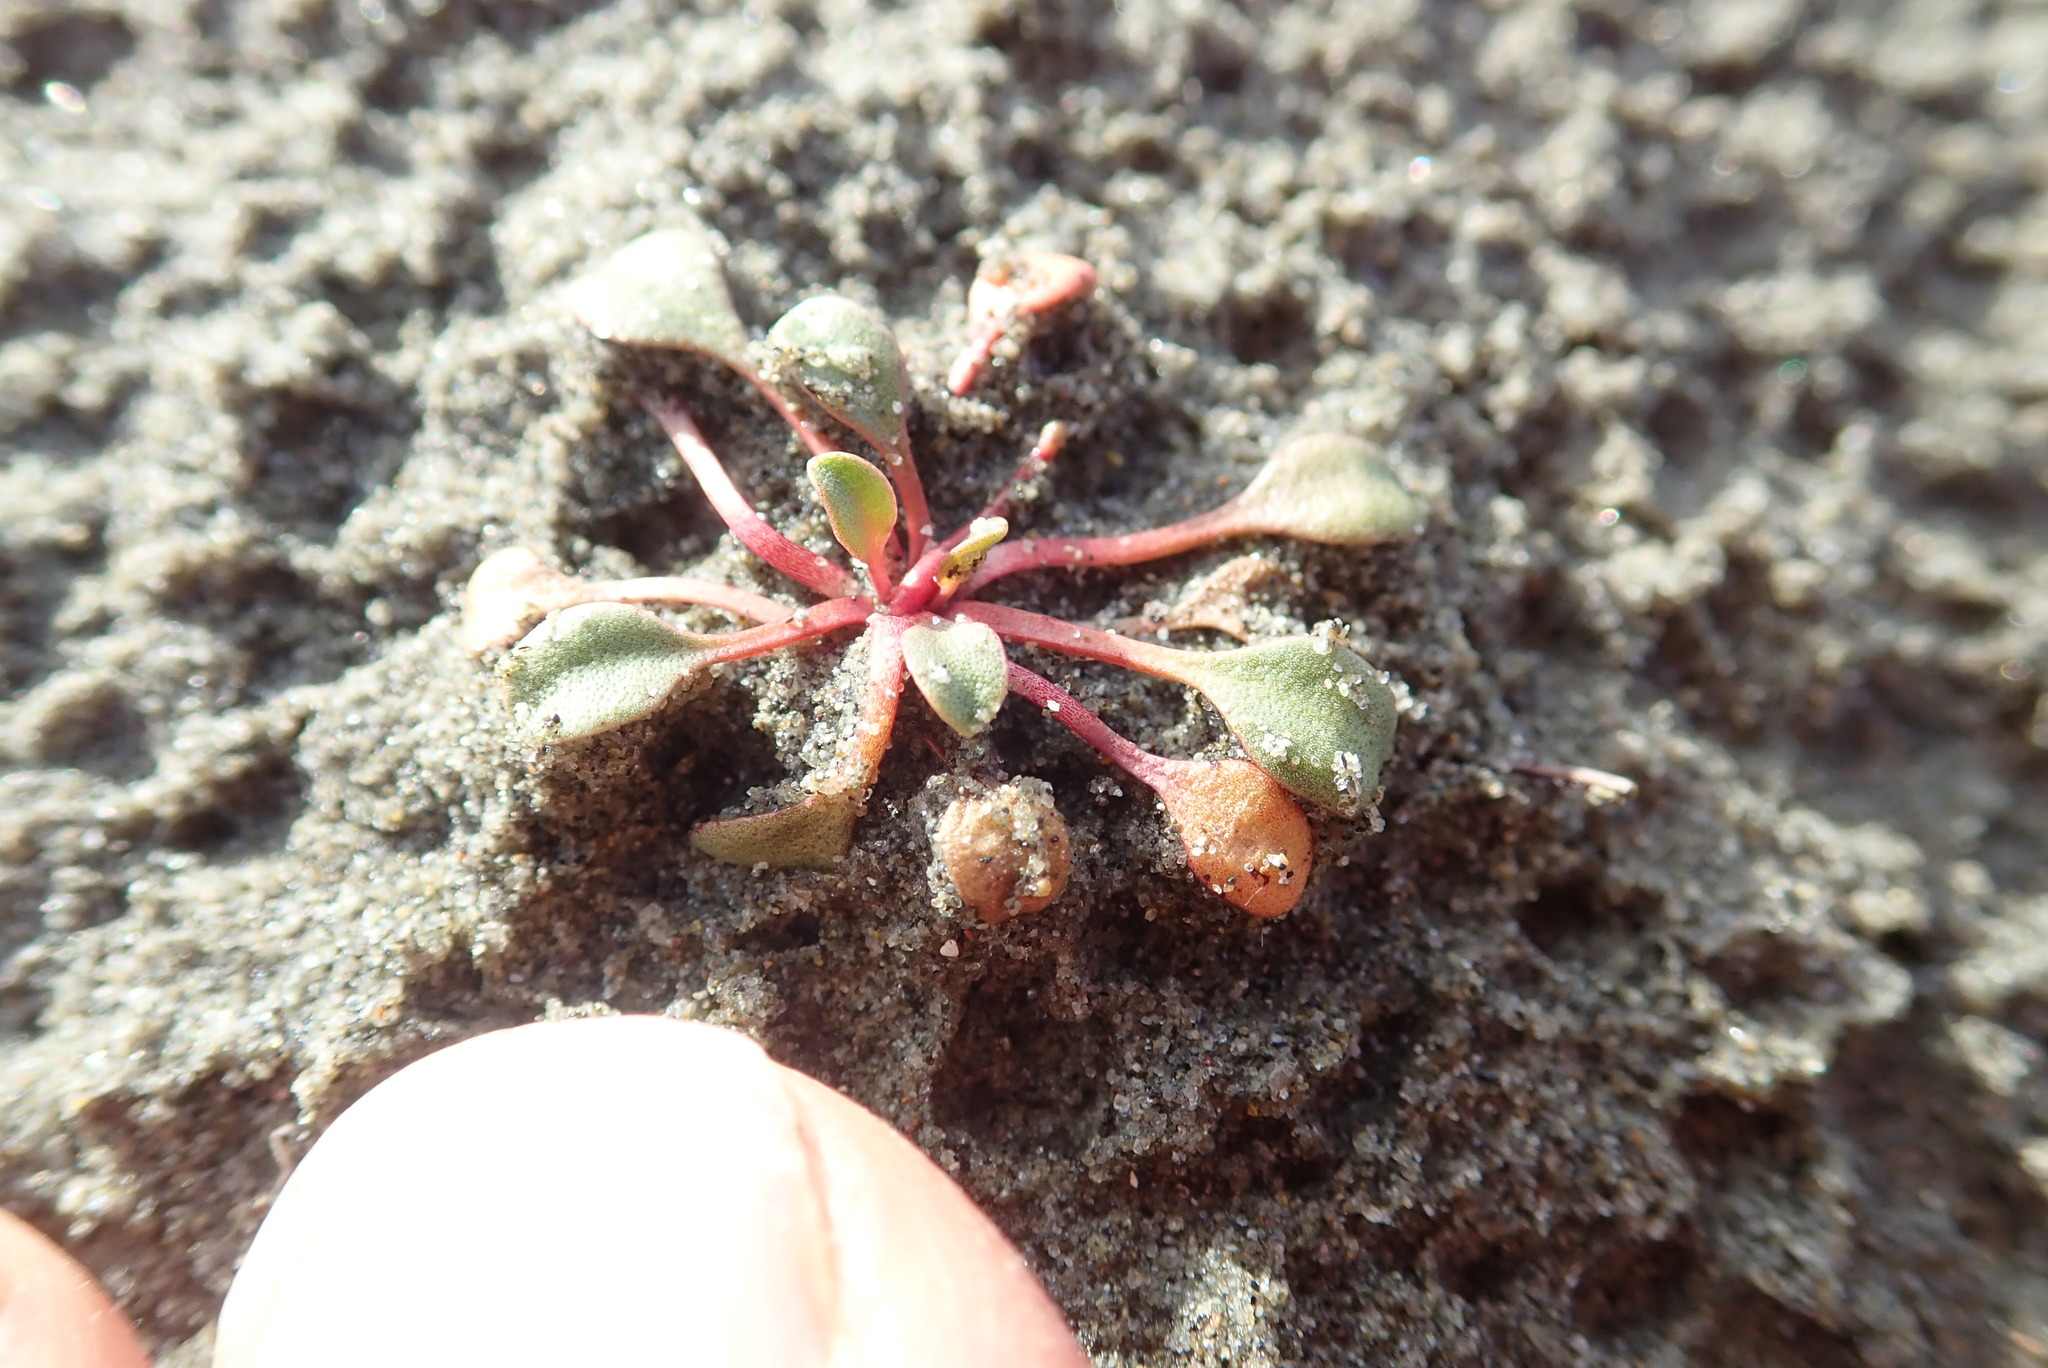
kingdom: Plantae
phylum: Tracheophyta
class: Magnoliopsida
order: Ericales
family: Primulaceae
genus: Samolus
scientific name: Samolus repens
